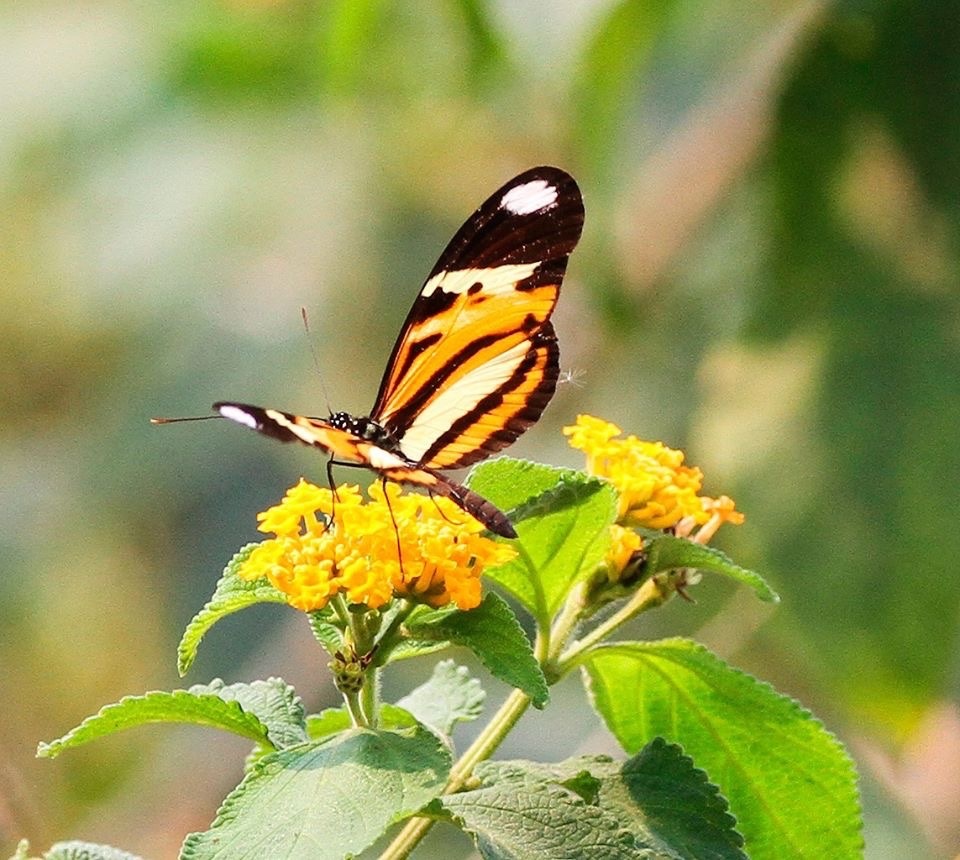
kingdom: Animalia
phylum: Arthropoda
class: Insecta
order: Lepidoptera
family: Nymphalidae
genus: Heliconius
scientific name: Heliconius ethilla
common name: Ethilia longwing
